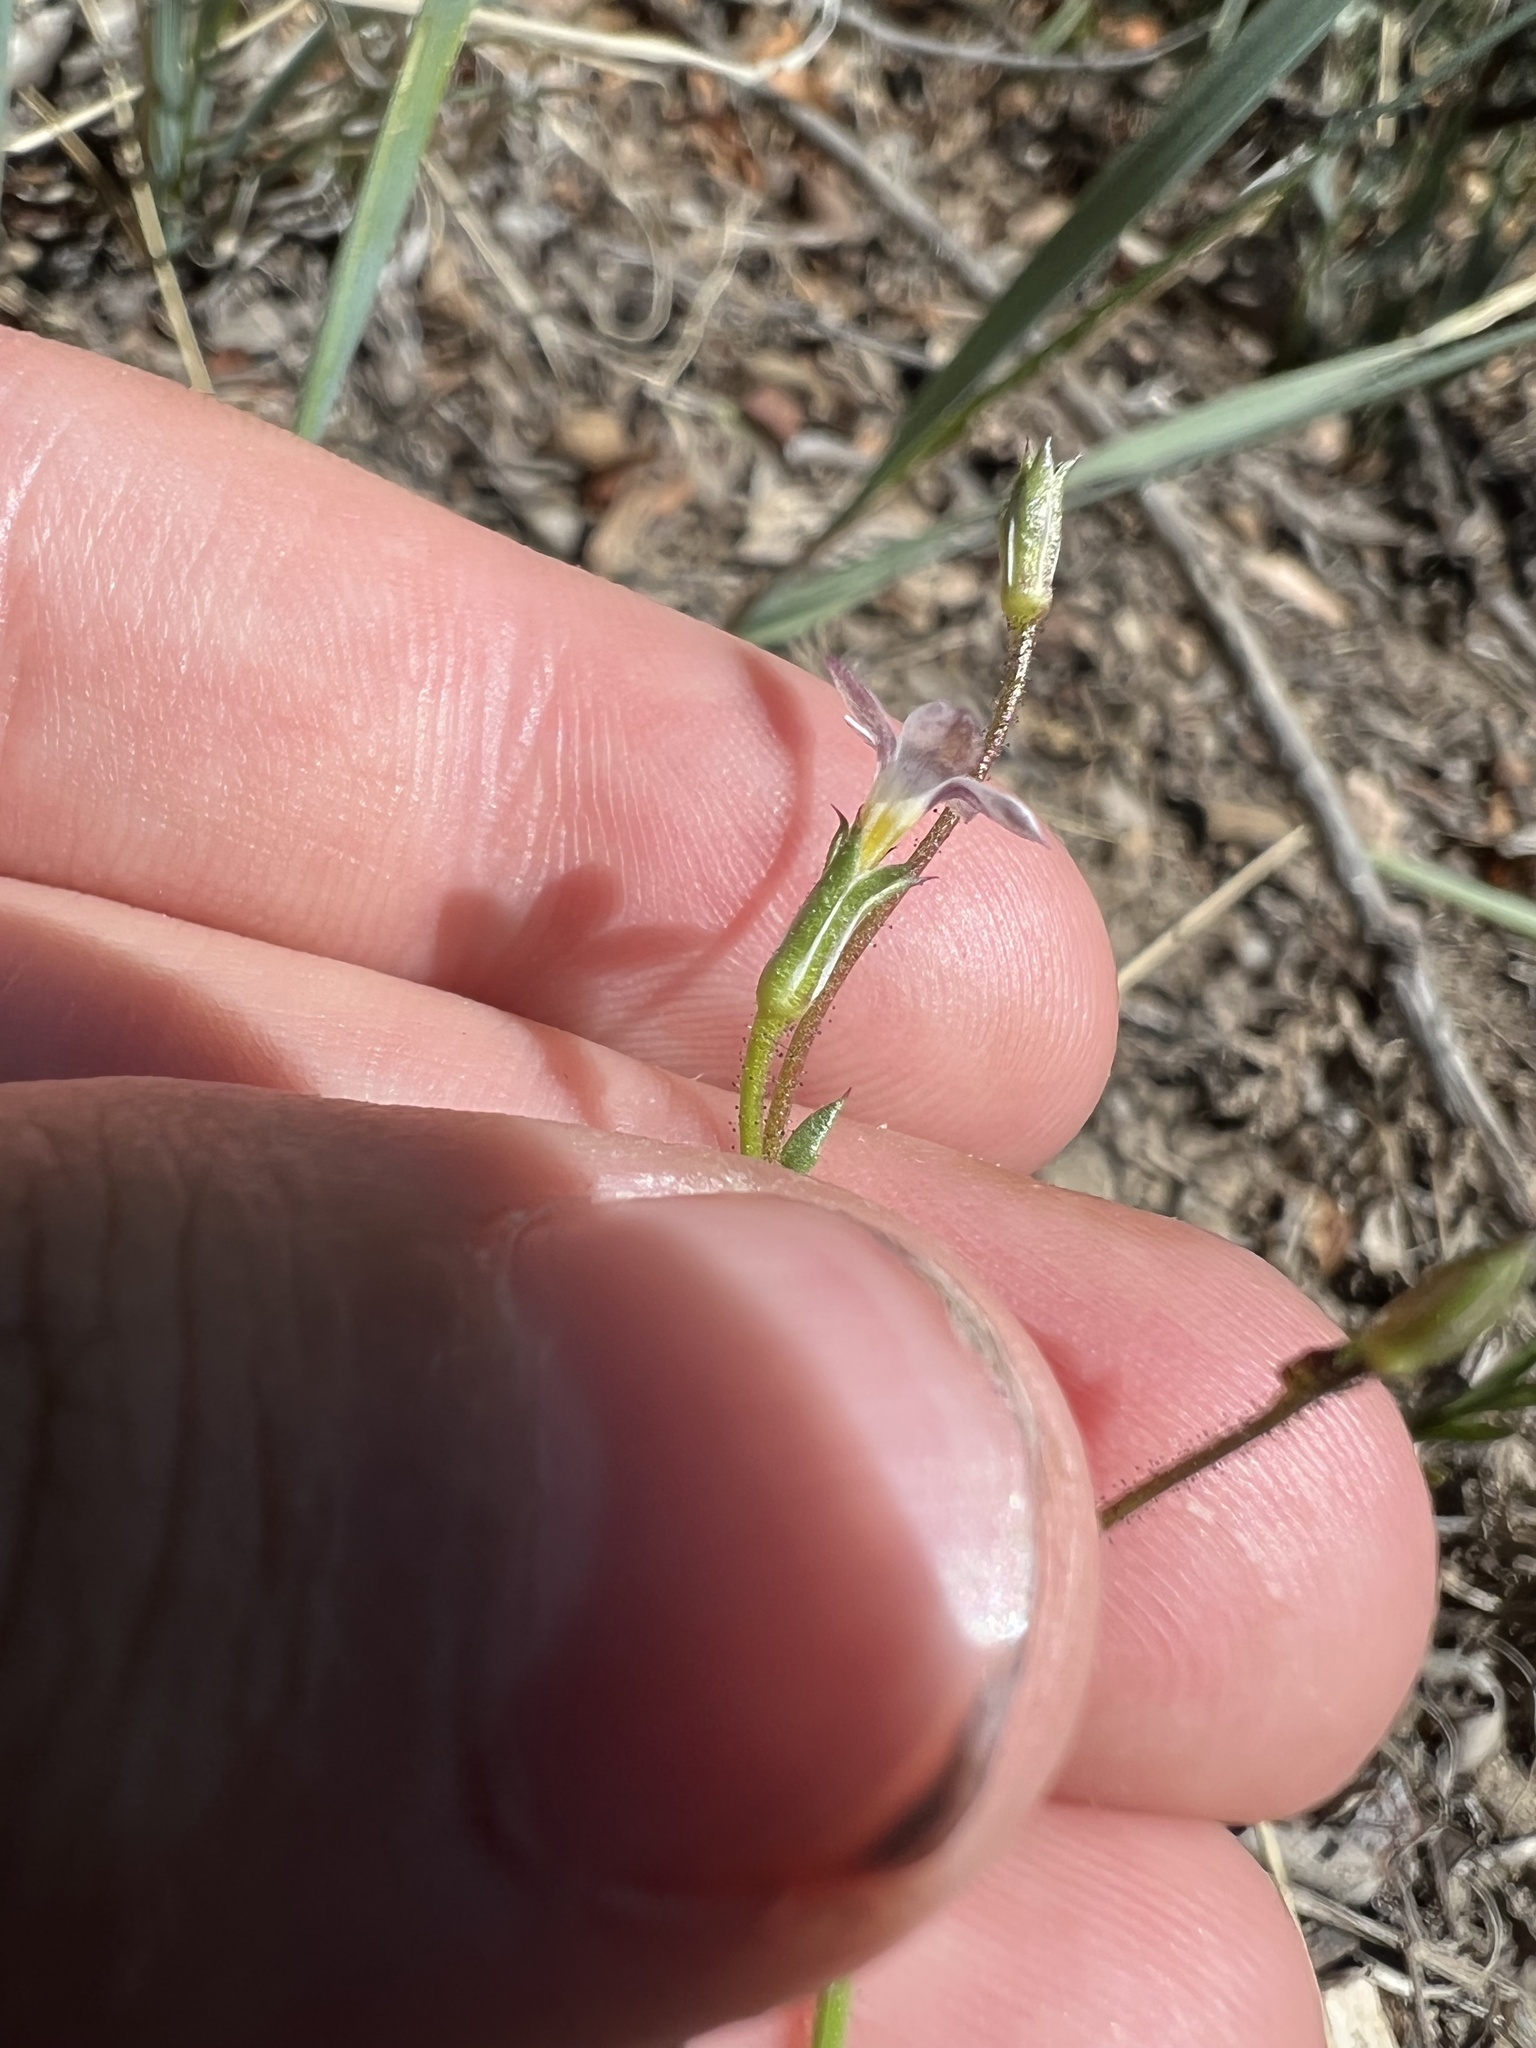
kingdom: Plantae
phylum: Tracheophyta
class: Magnoliopsida
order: Ericales
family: Polemoniaceae
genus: Gilia
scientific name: Gilia clokeyi
